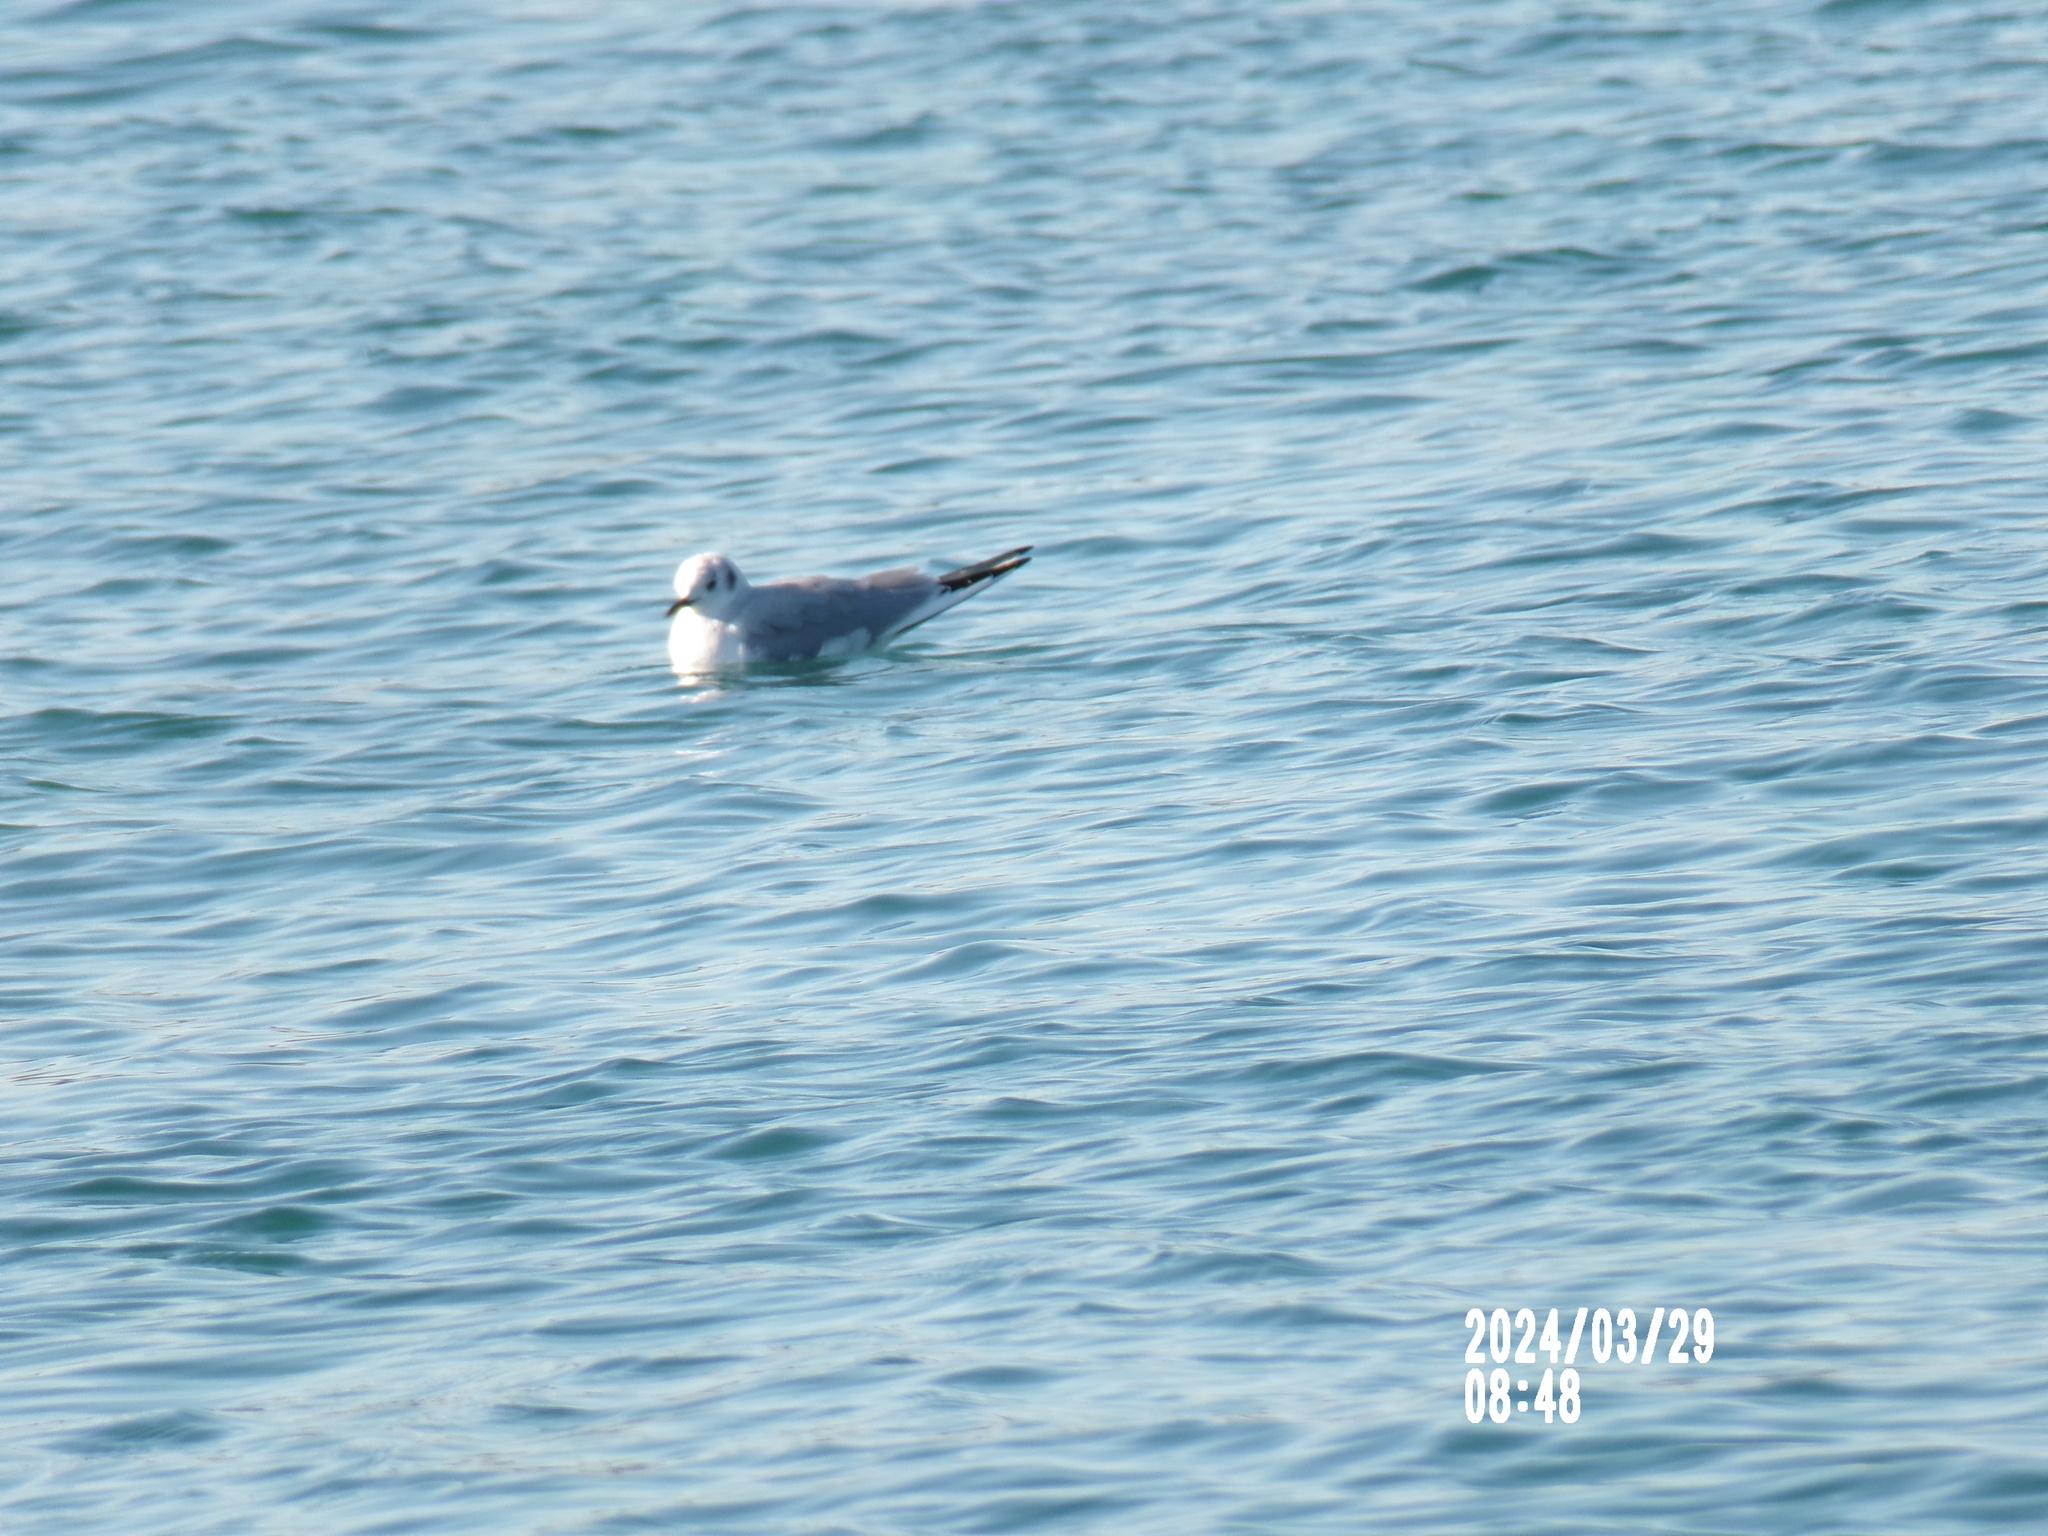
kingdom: Animalia
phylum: Chordata
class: Aves
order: Charadriiformes
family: Laridae
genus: Chroicocephalus
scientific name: Chroicocephalus philadelphia
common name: Bonaparte's gull
